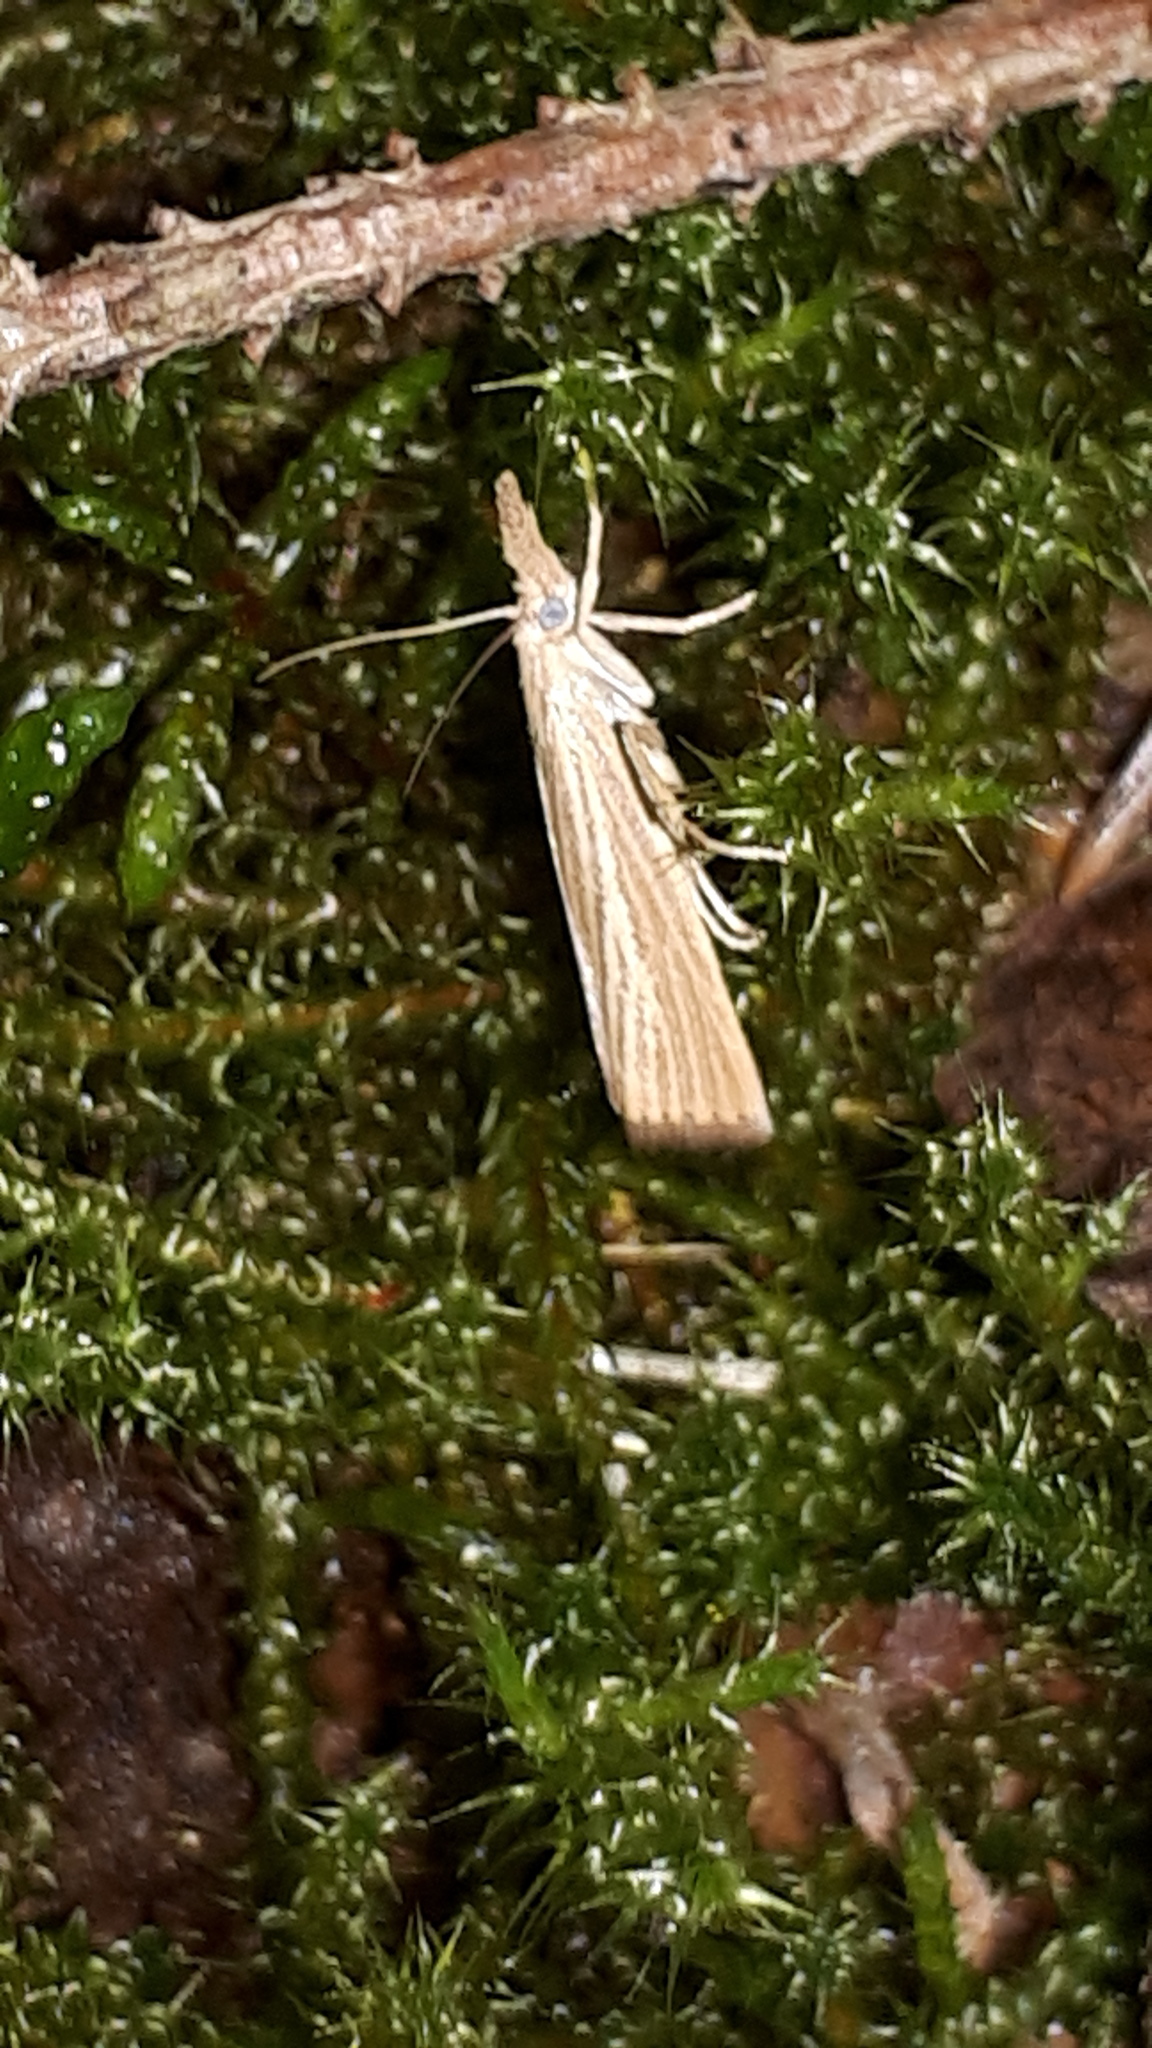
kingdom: Animalia
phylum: Arthropoda
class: Insecta
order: Lepidoptera
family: Crambidae
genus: Agriphila
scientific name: Agriphila straminella
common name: Straw grass-veneer
